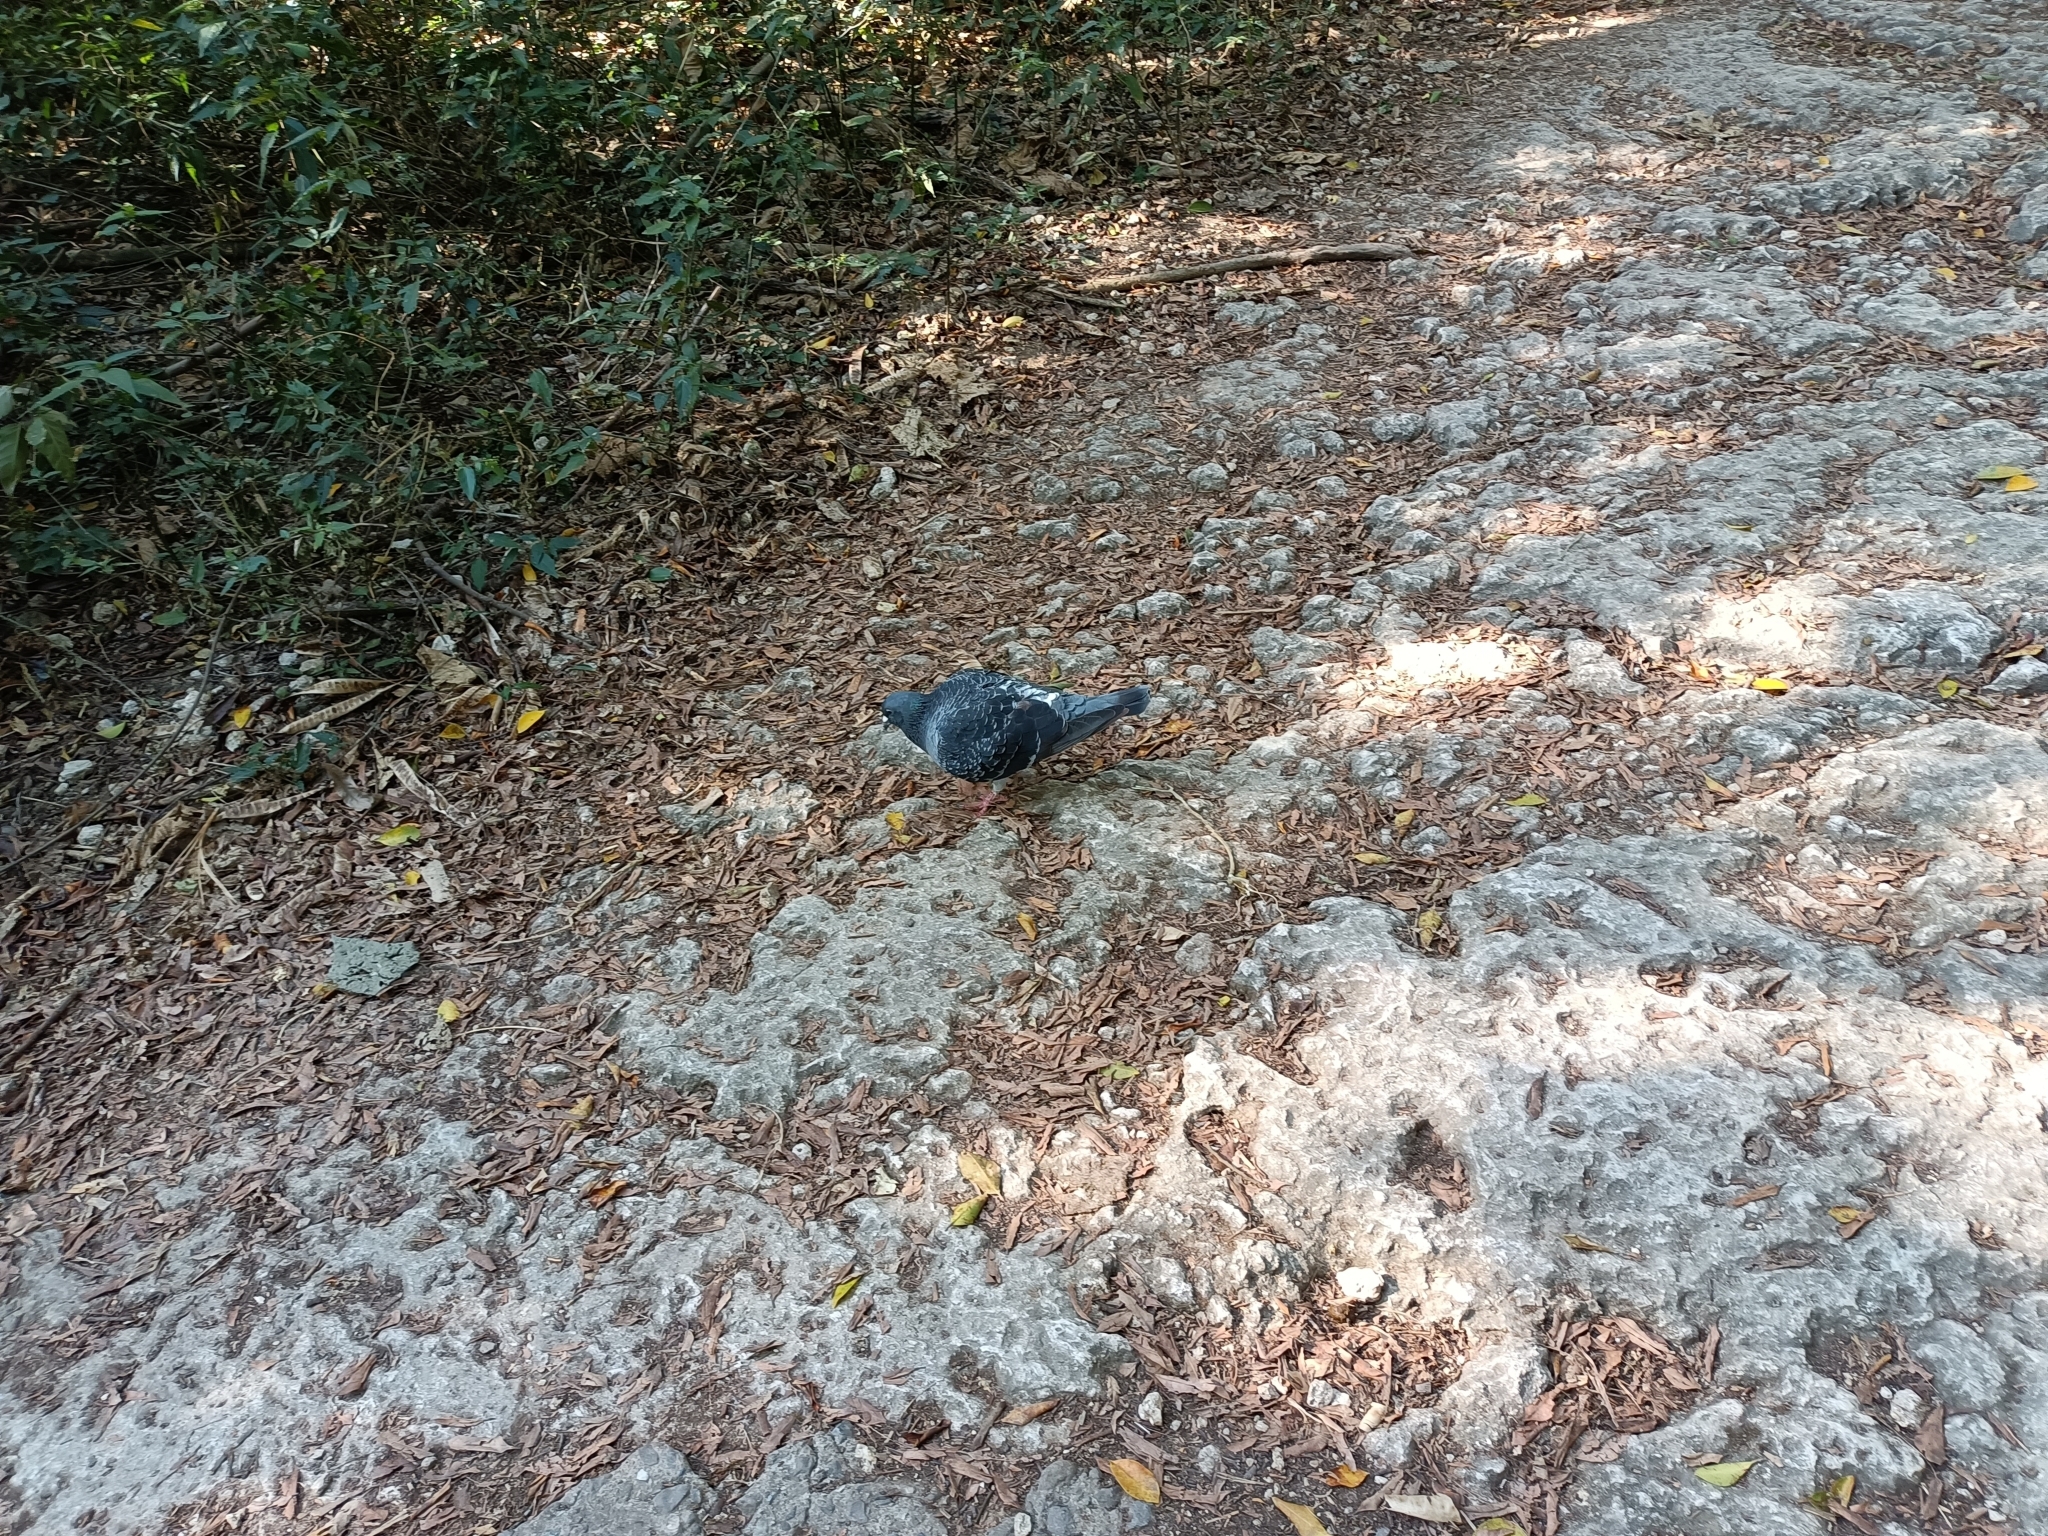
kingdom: Animalia
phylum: Chordata
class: Aves
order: Columbiformes
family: Columbidae
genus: Columba
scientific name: Columba livia
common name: Rock pigeon
